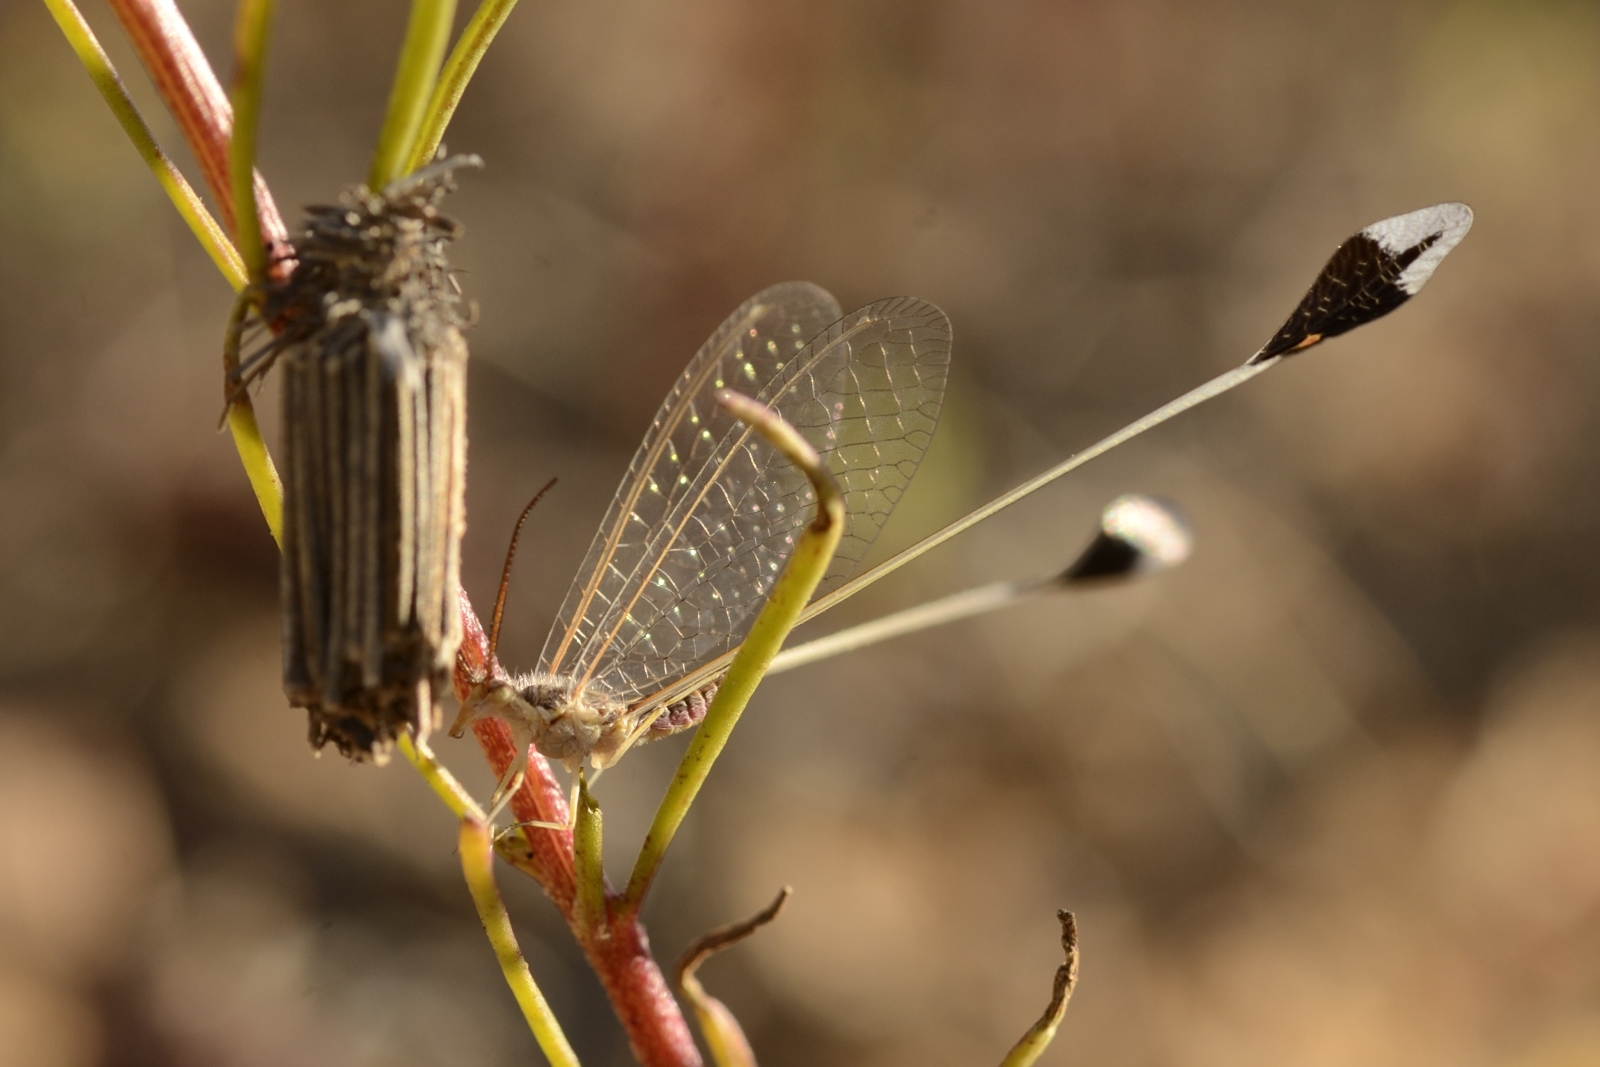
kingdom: Animalia
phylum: Arthropoda
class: Insecta
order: Neuroptera
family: Nemopteridae
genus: Palmipenna
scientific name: Palmipenna pilicornis
